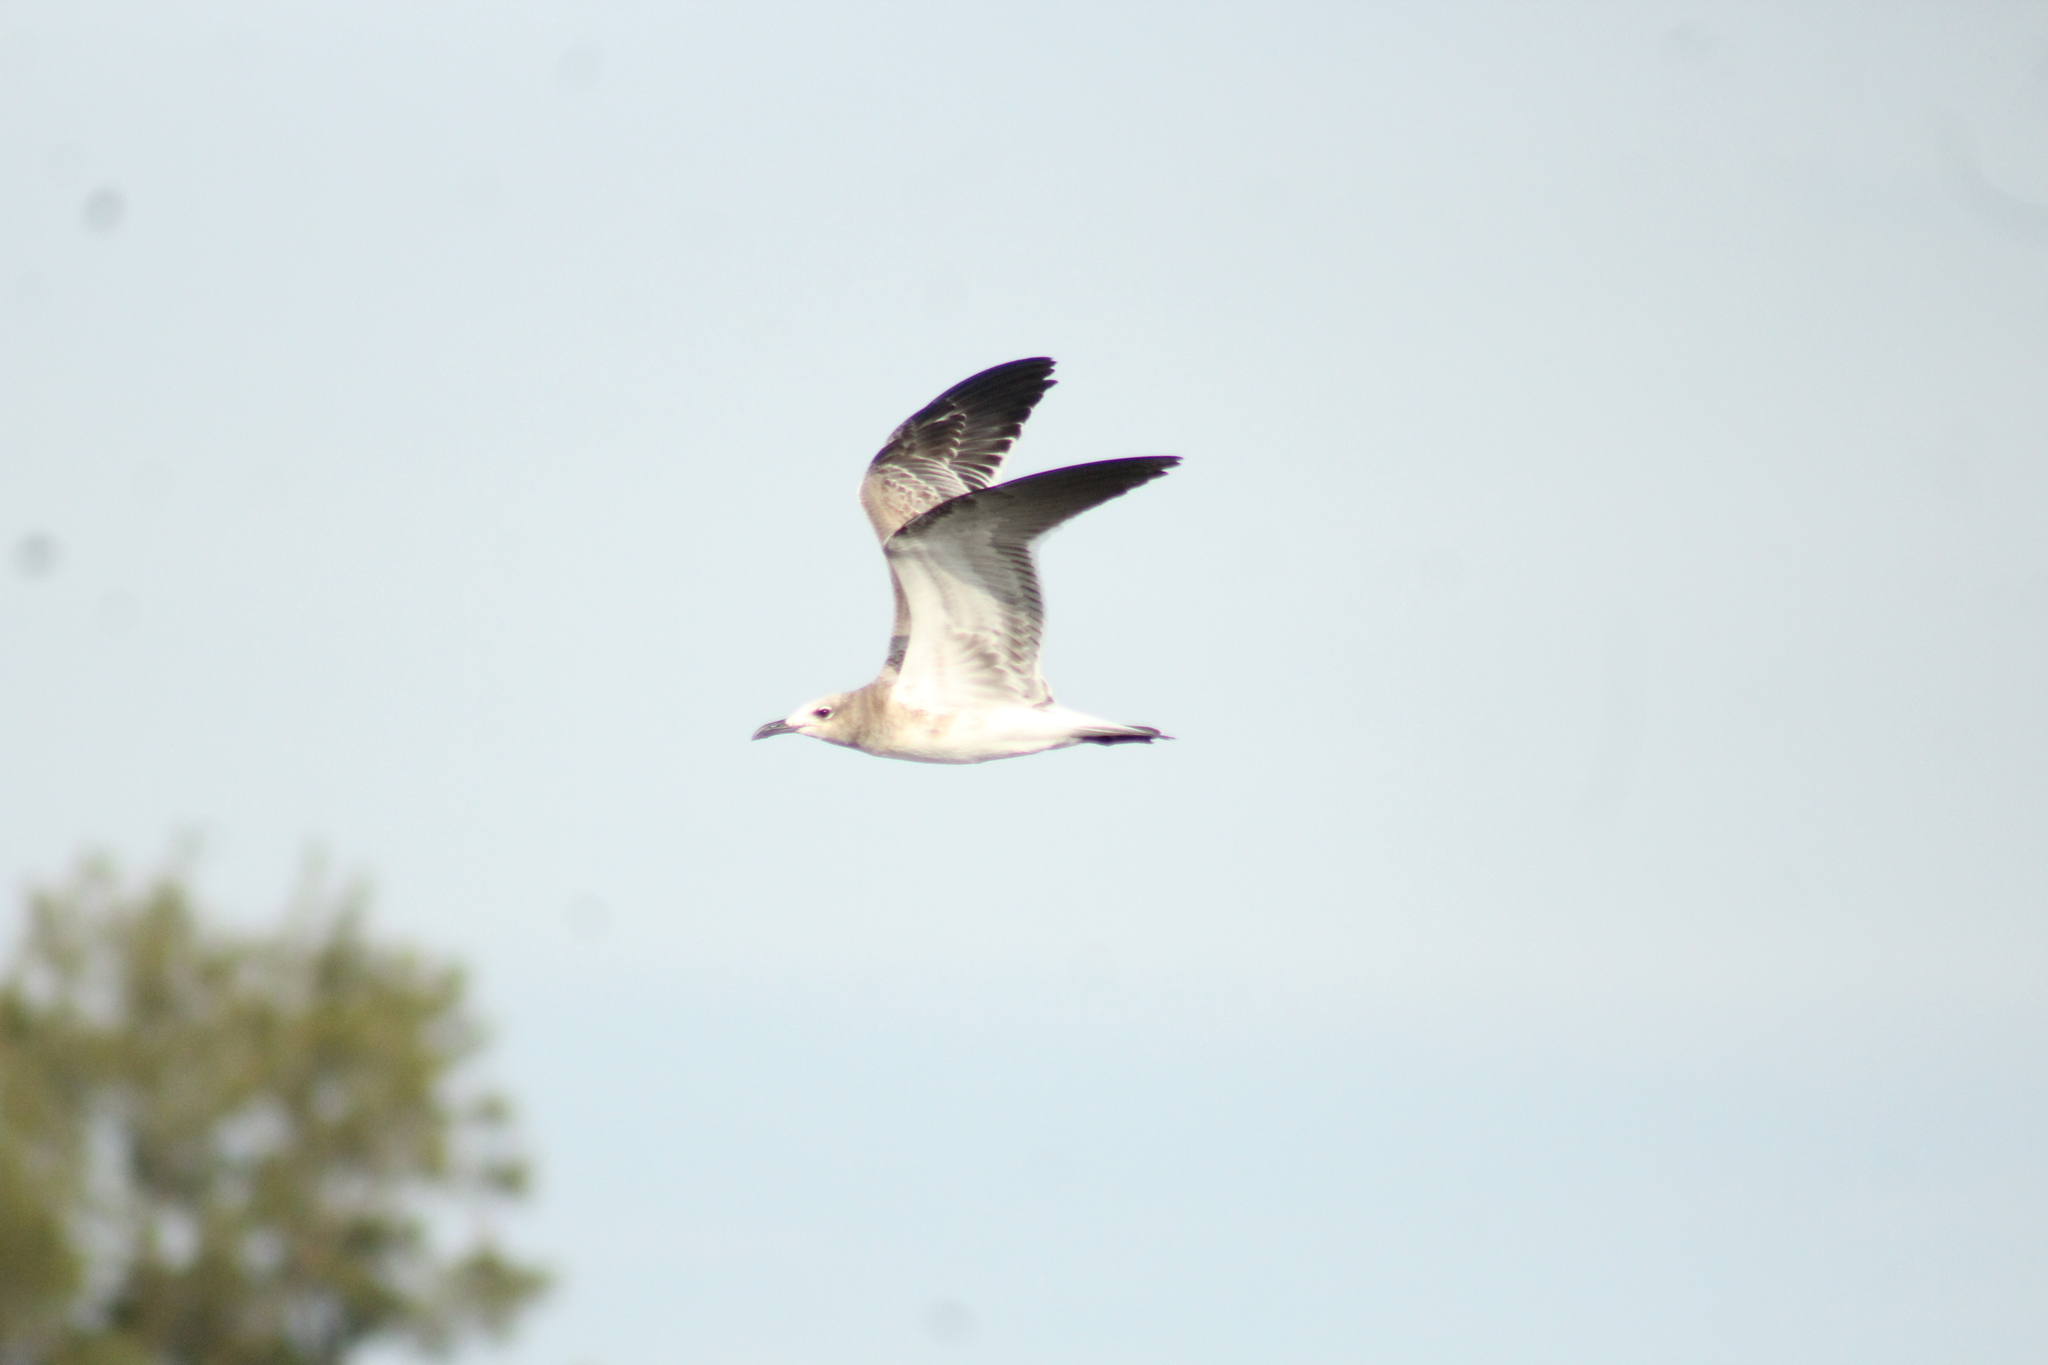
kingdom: Animalia
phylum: Chordata
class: Aves
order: Charadriiformes
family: Laridae
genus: Leucophaeus
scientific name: Leucophaeus atricilla
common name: Laughing gull
